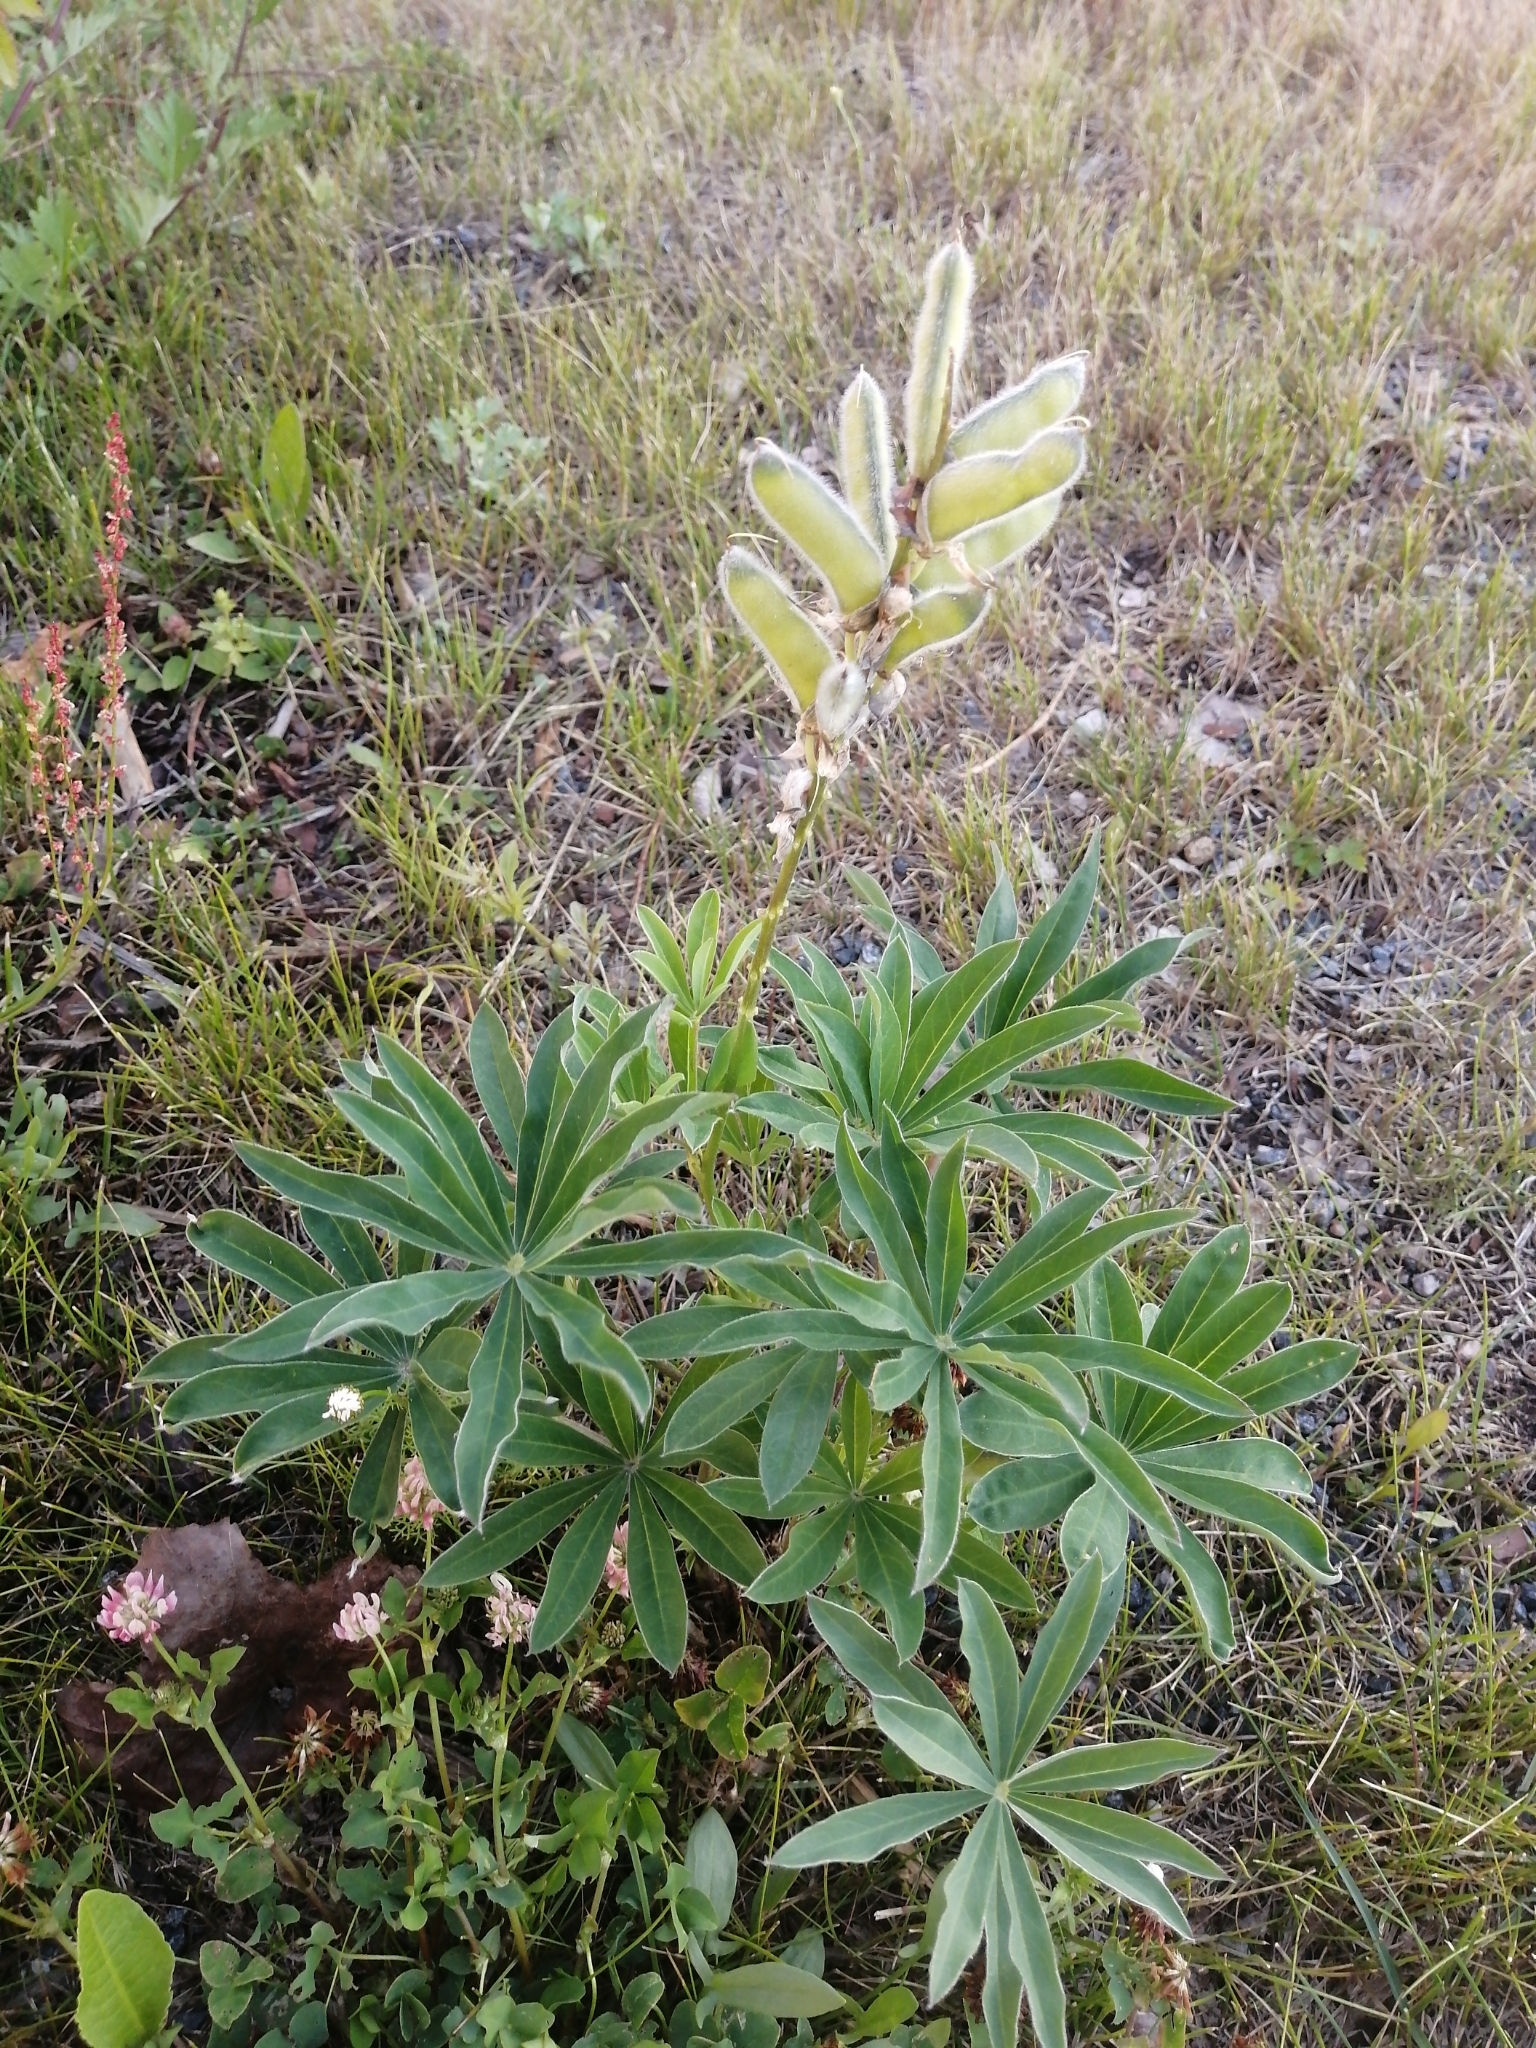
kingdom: Plantae
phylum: Tracheophyta
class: Magnoliopsida
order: Fabales
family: Fabaceae
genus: Lupinus
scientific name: Lupinus polyphyllus
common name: Garden lupin
